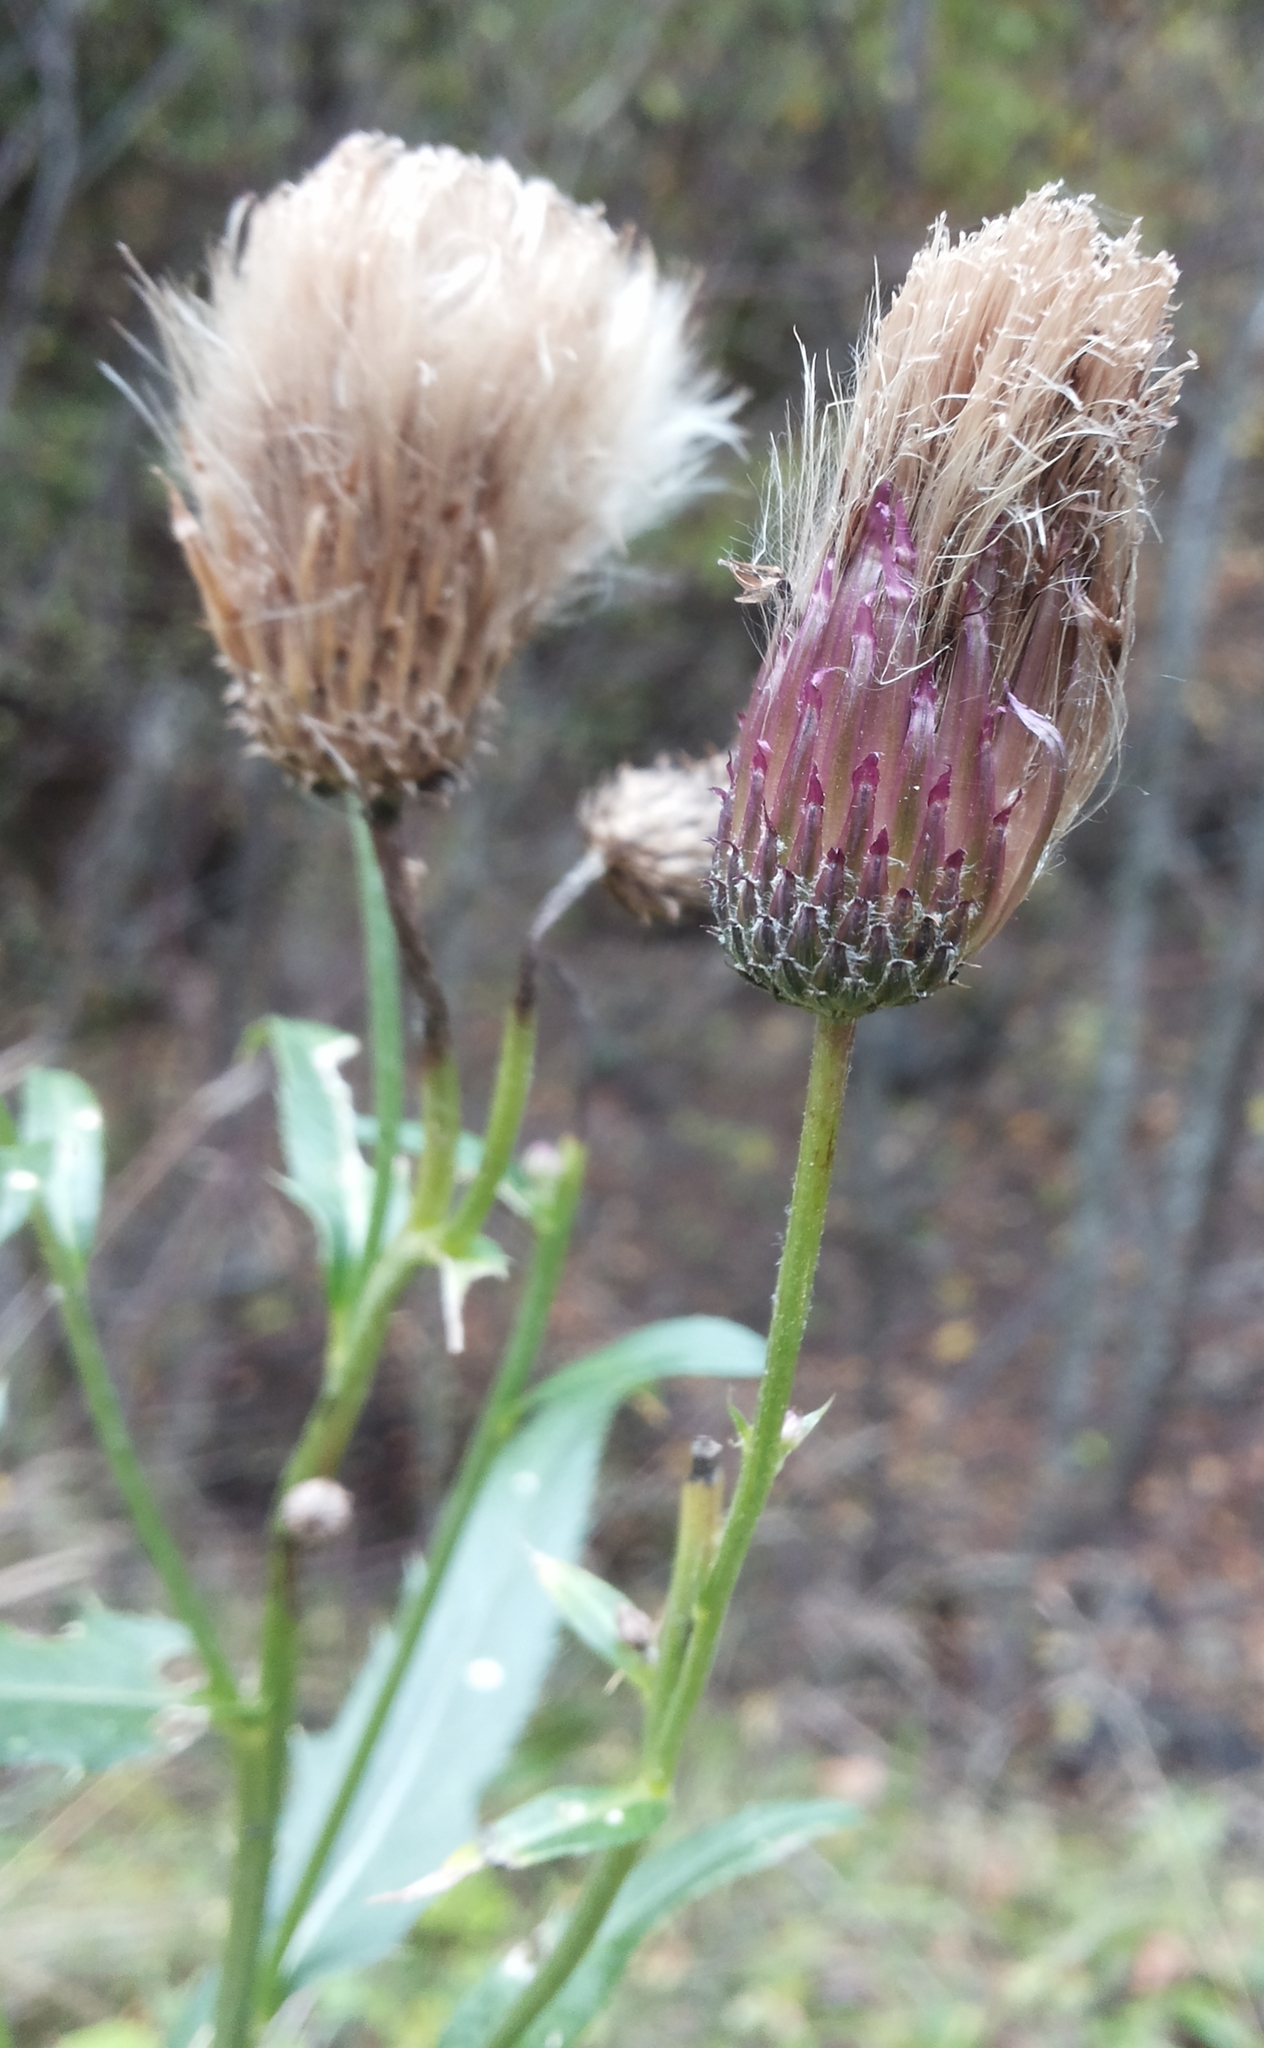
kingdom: Plantae
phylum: Tracheophyta
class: Magnoliopsida
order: Asterales
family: Asteraceae
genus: Cirsium
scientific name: Cirsium arvense
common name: Creeping thistle
